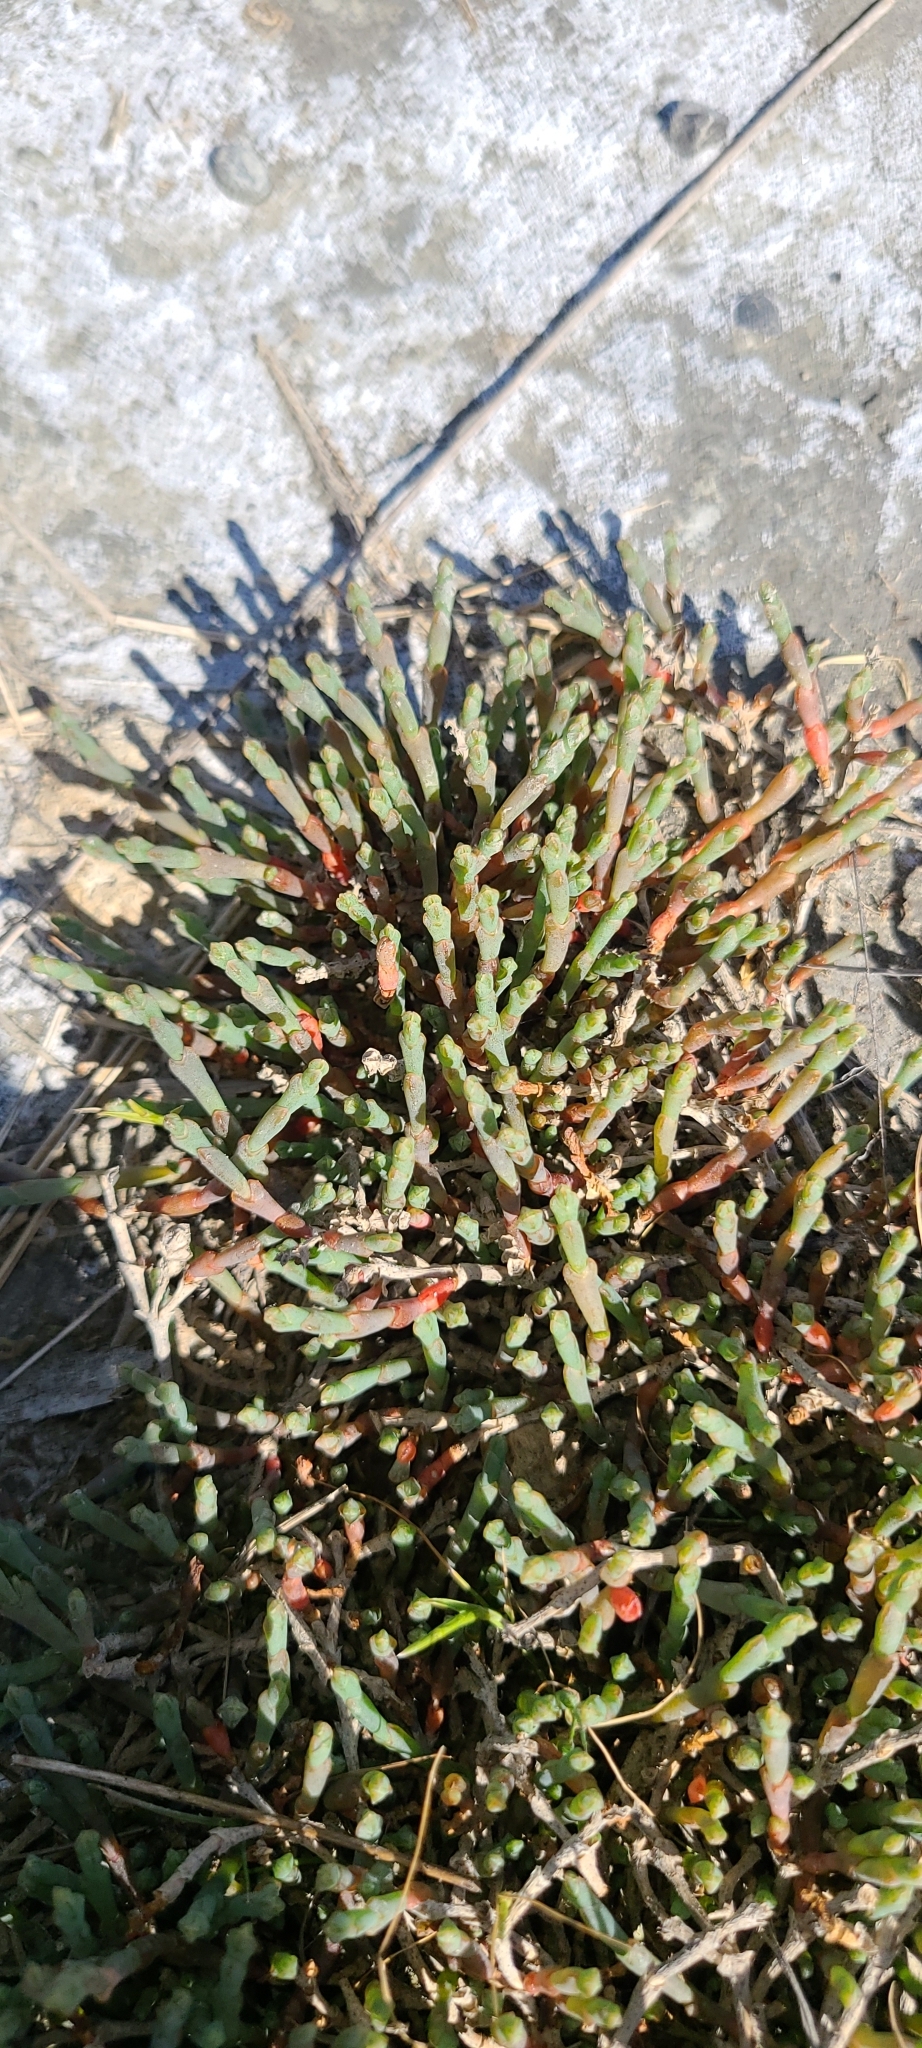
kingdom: Plantae
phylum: Tracheophyta
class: Magnoliopsida
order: Caryophyllales
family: Amaranthaceae
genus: Salicornia
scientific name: Salicornia quinqueflora
